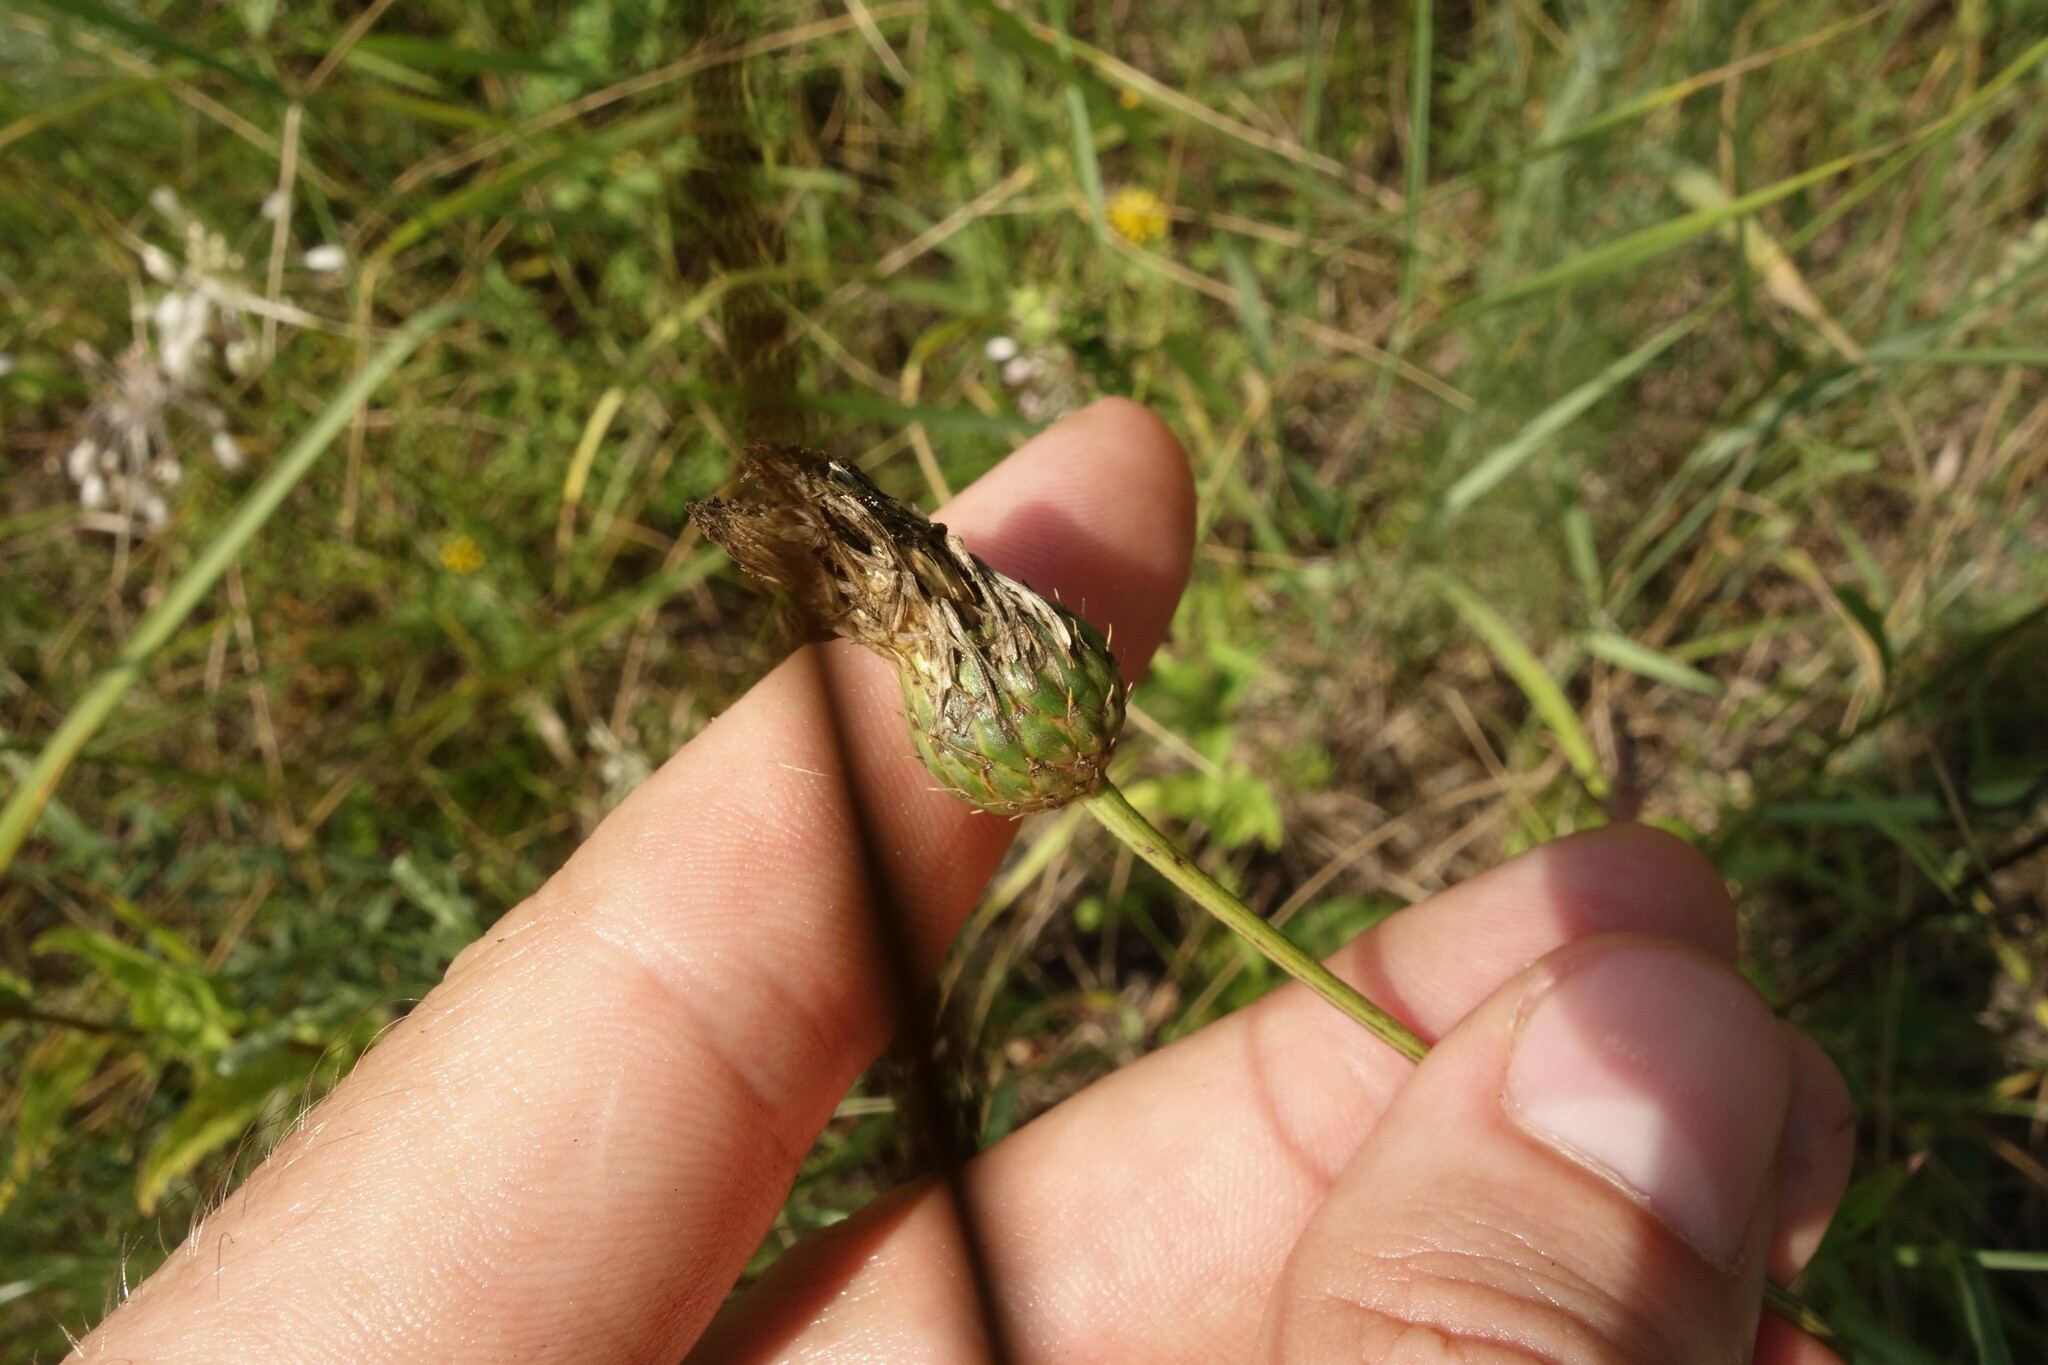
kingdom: Plantae
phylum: Tracheophyta
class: Magnoliopsida
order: Asterales
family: Asteraceae
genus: Klasea
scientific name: Klasea radiata
